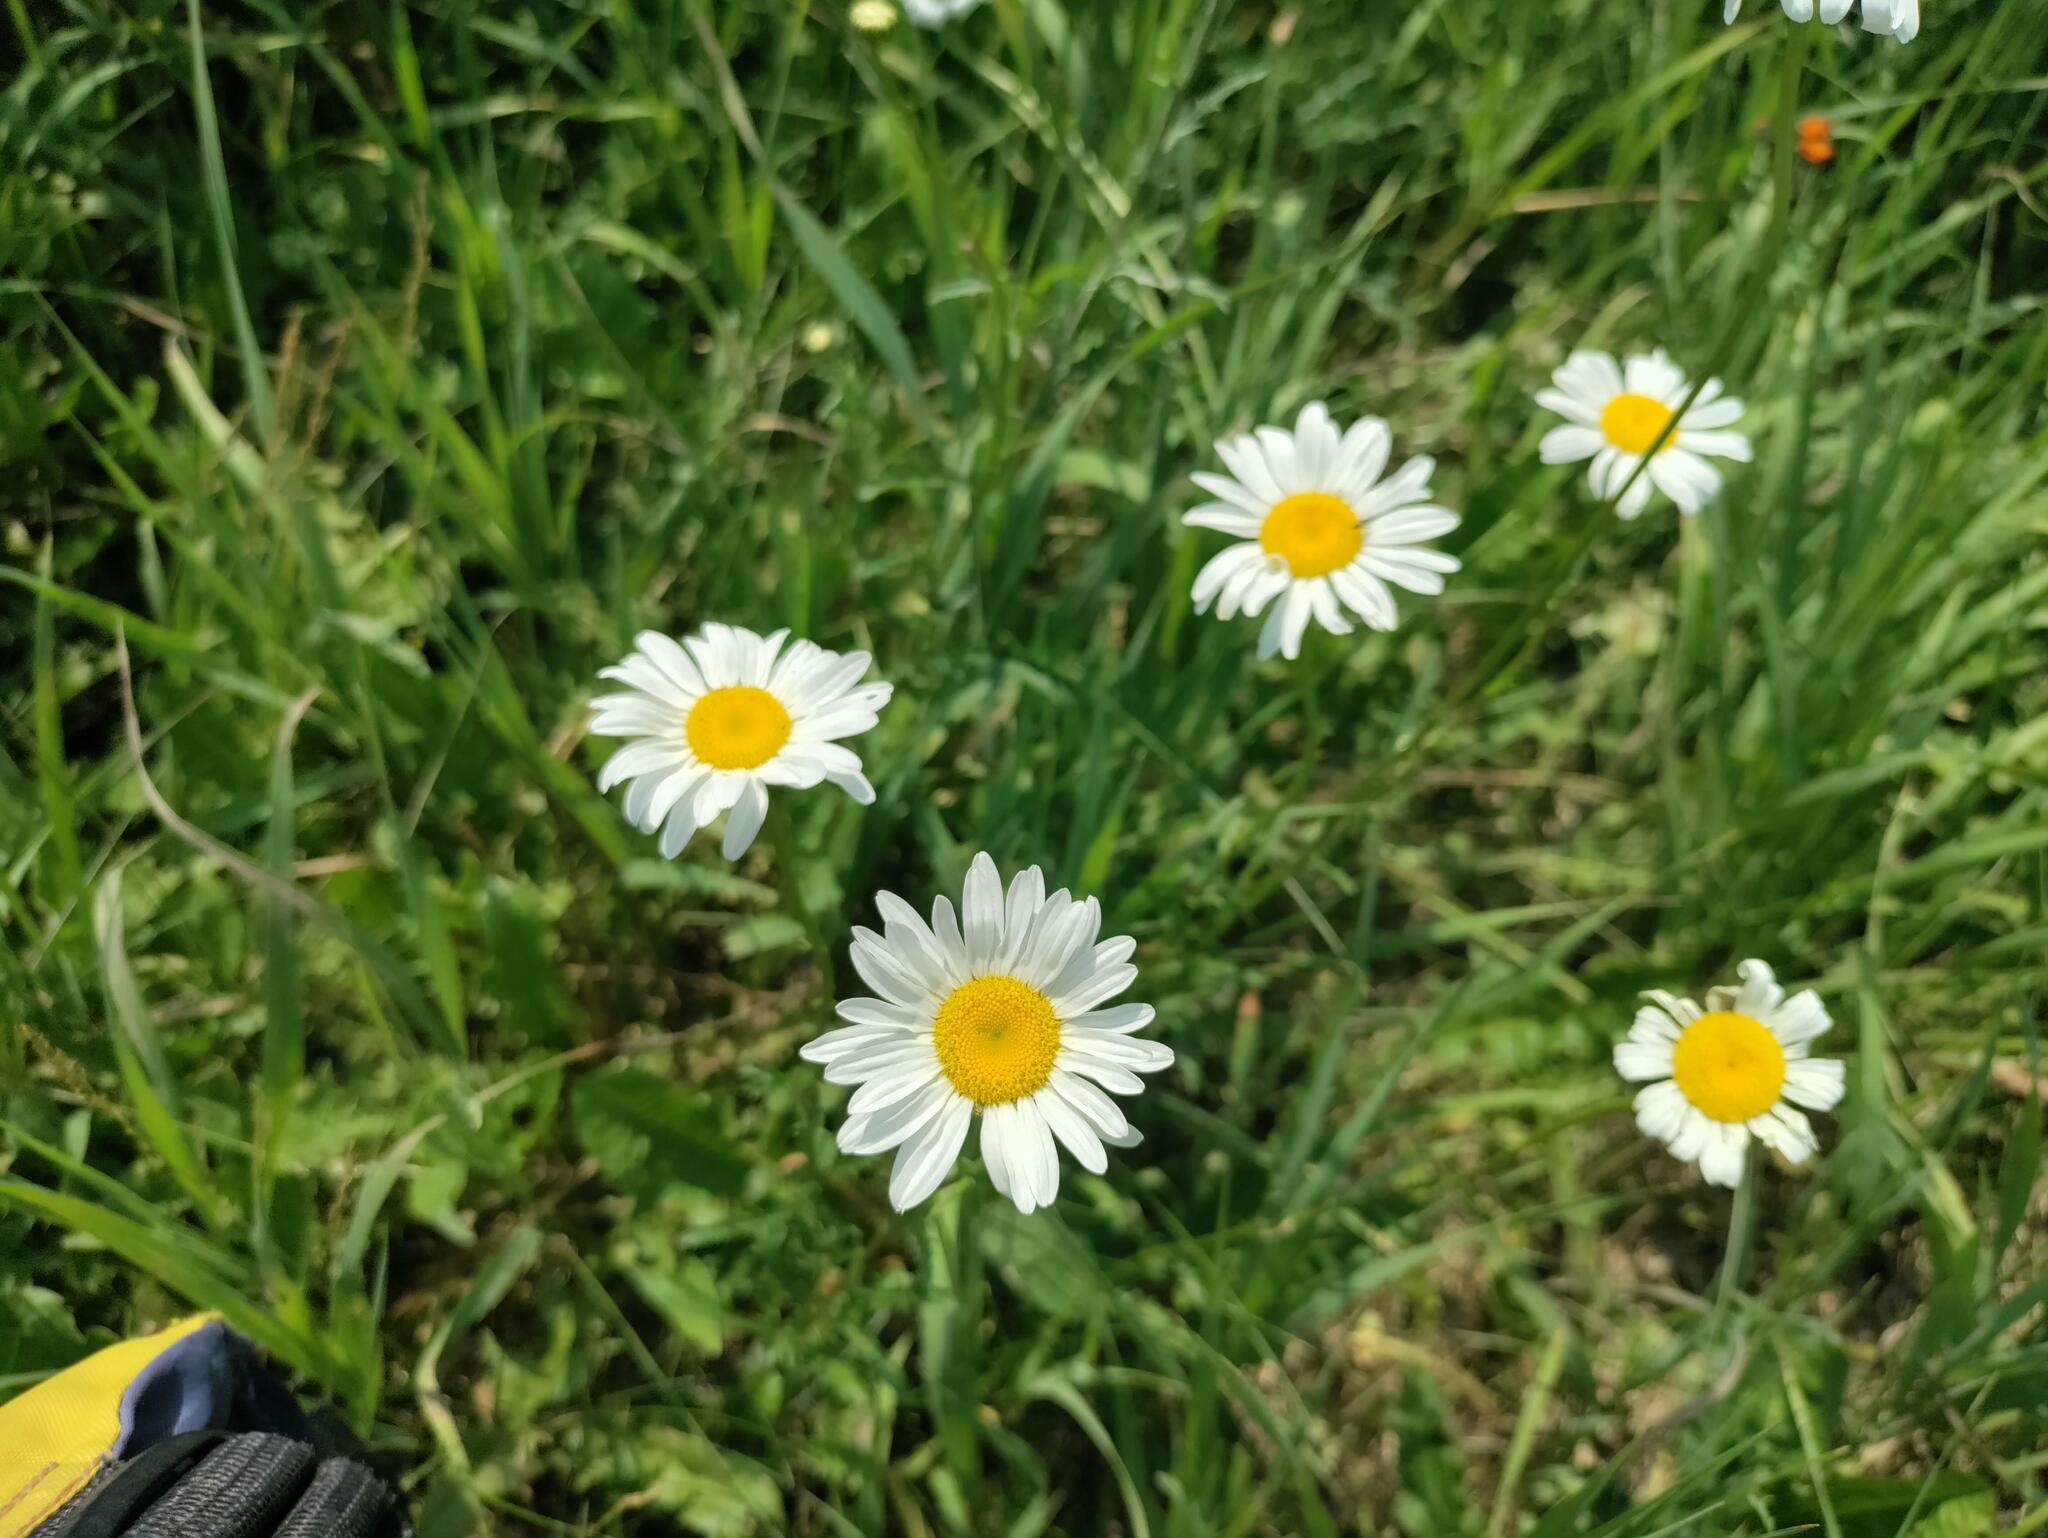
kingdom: Plantae
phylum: Tracheophyta
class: Magnoliopsida
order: Asterales
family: Asteraceae
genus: Leucanthemum
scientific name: Leucanthemum vulgare
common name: Oxeye daisy
